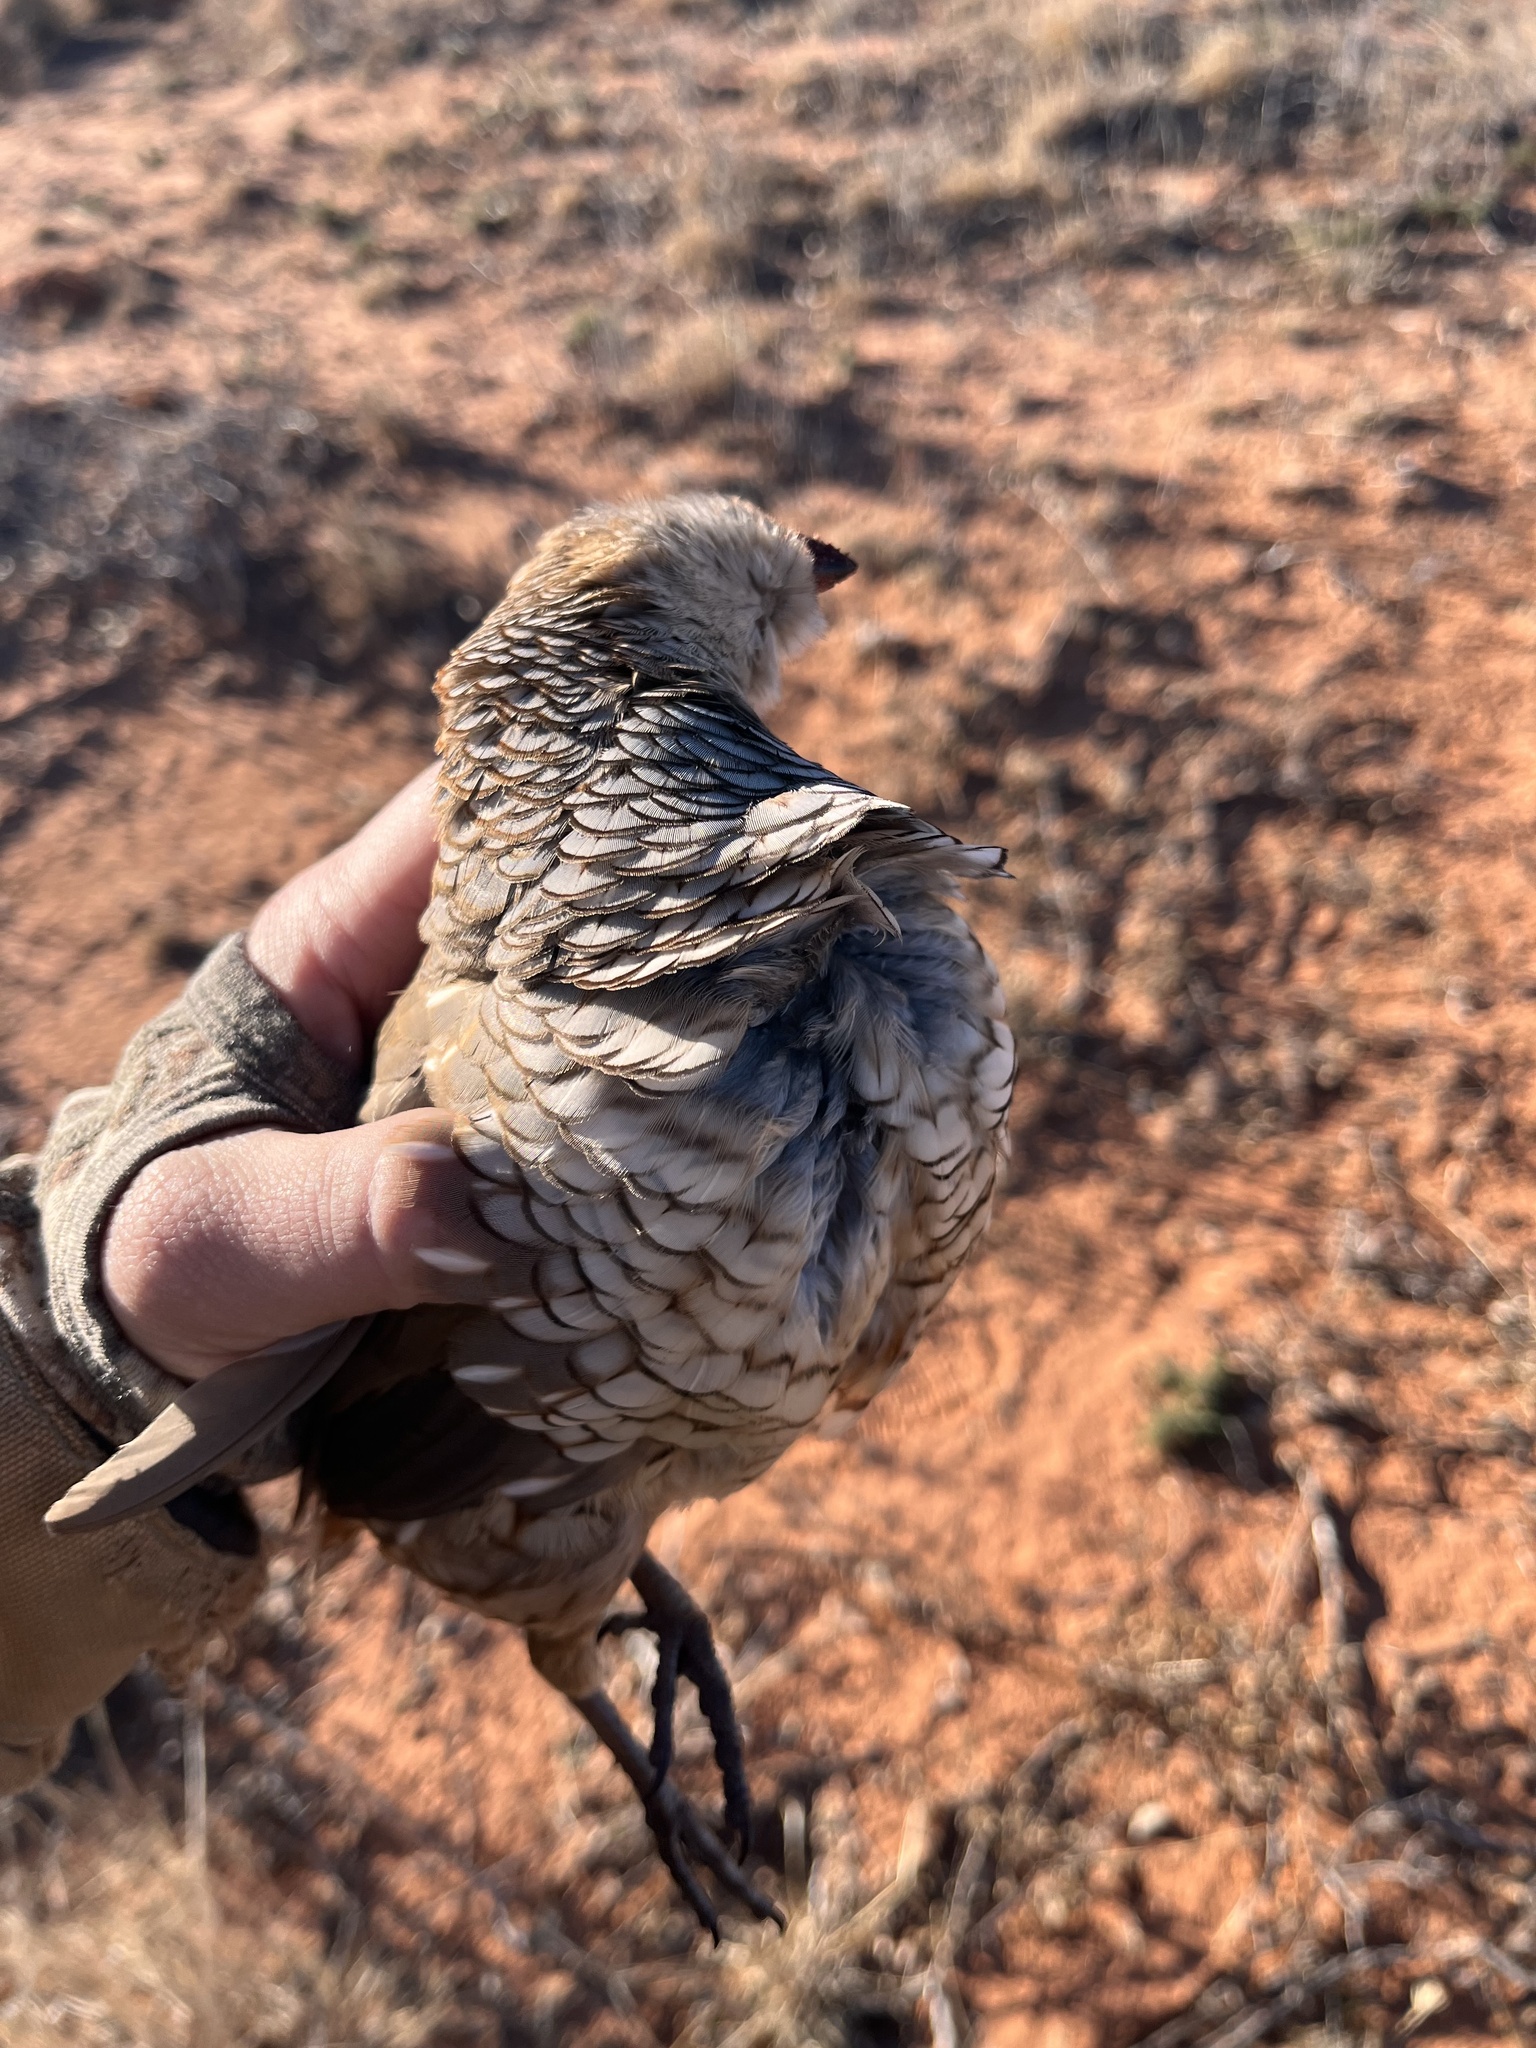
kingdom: Animalia
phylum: Chordata
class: Aves
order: Galliformes
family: Odontophoridae
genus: Callipepla
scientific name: Callipepla squamata
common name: Scaled quail
